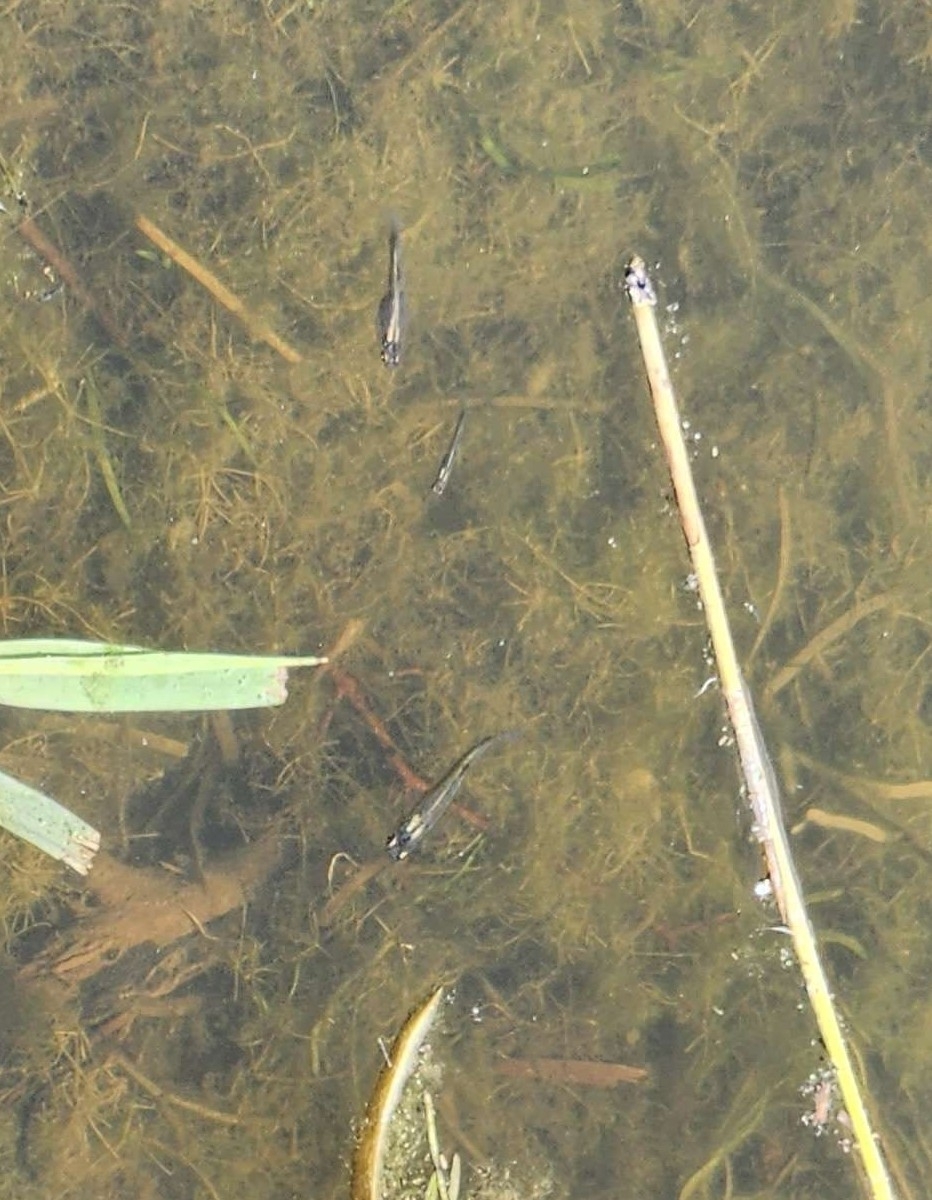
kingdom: Animalia
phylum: Chordata
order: Cyprinodontiformes
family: Poeciliidae
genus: Gambusia
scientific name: Gambusia affinis
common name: Mosquitofish
